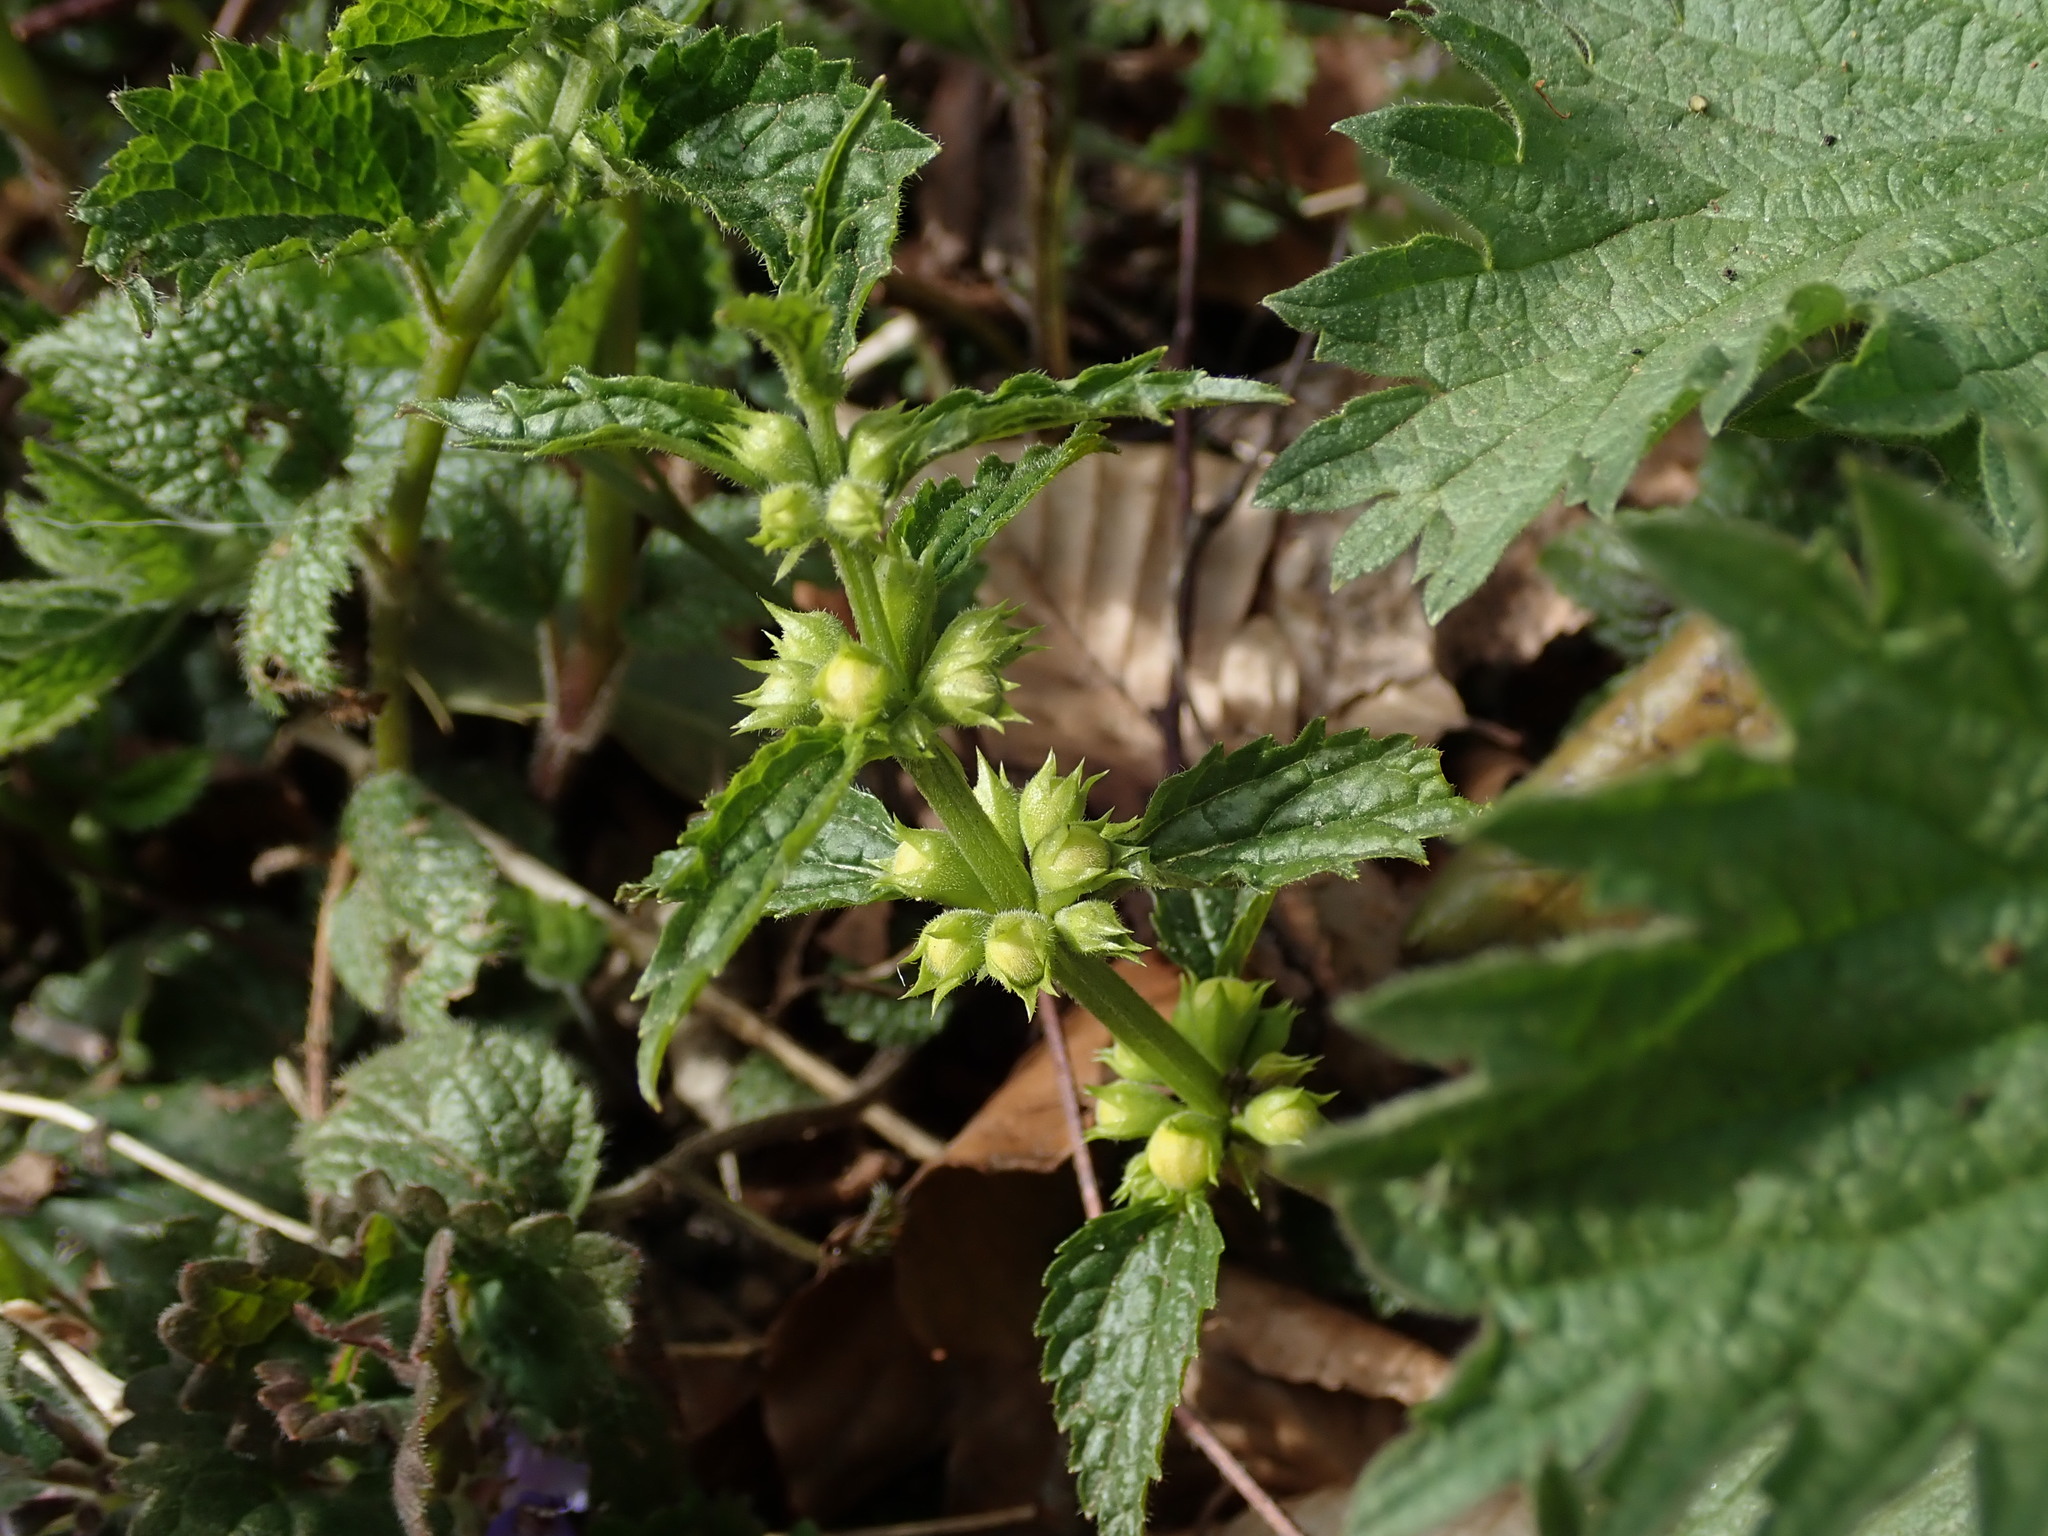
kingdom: Plantae
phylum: Tracheophyta
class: Magnoliopsida
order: Lamiales
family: Lamiaceae
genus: Lamium
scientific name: Lamium galeobdolon
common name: Yellow archangel
